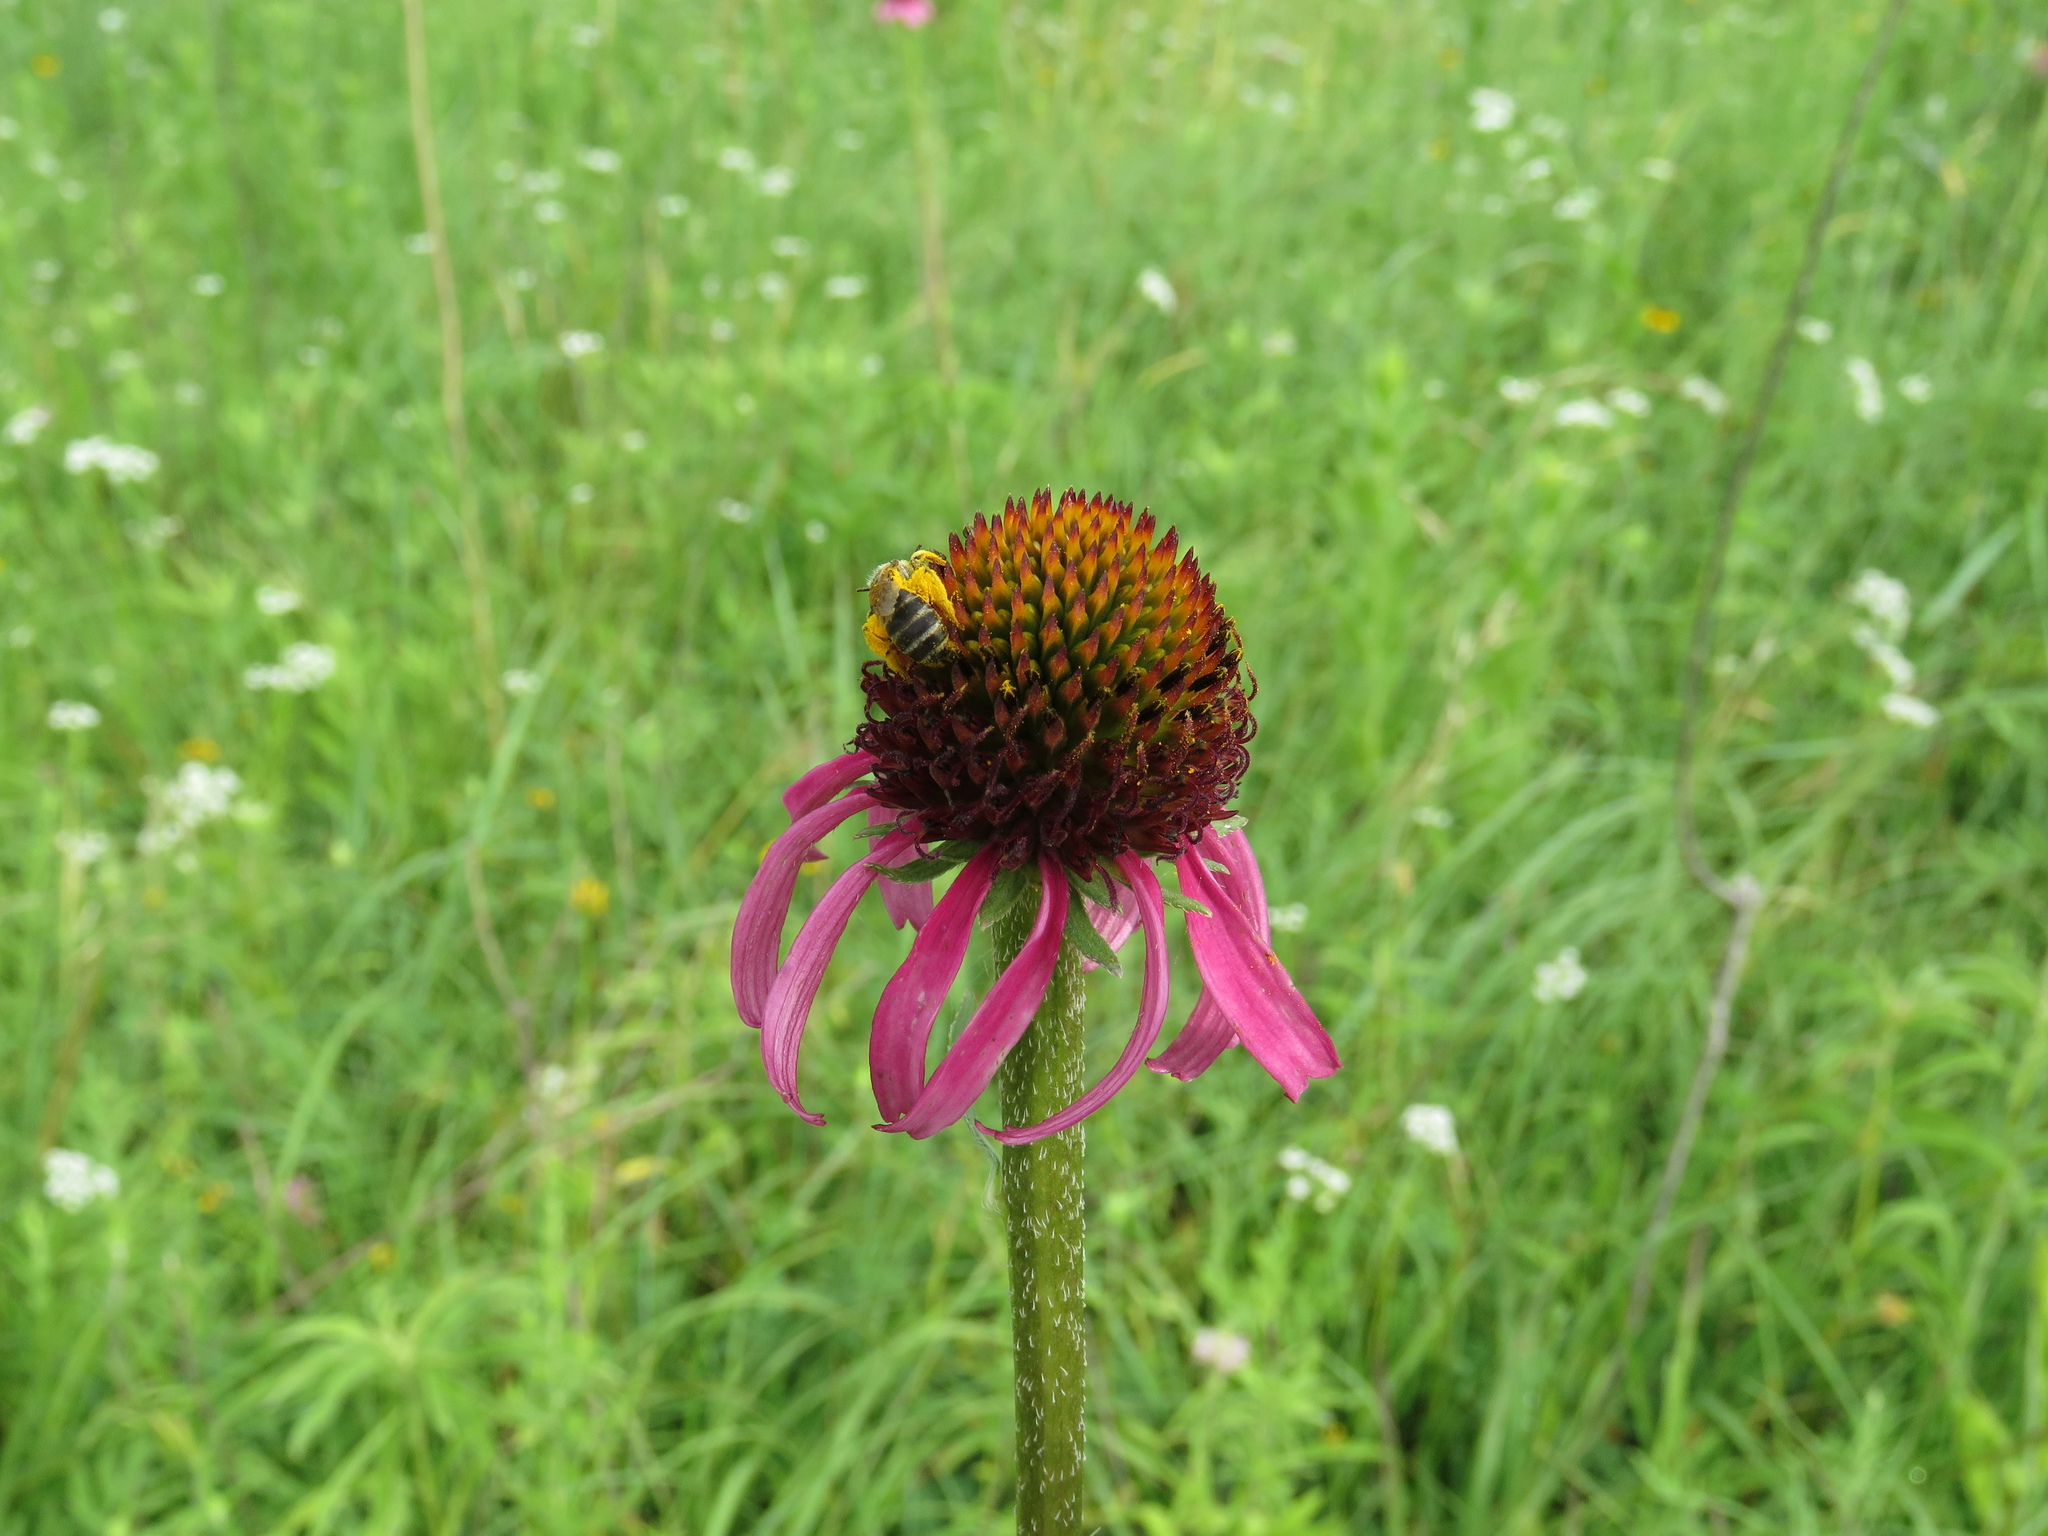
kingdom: Plantae
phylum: Tracheophyta
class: Magnoliopsida
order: Asterales
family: Asteraceae
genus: Echinacea
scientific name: Echinacea atrorubens
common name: Topeka purple-coneflower
